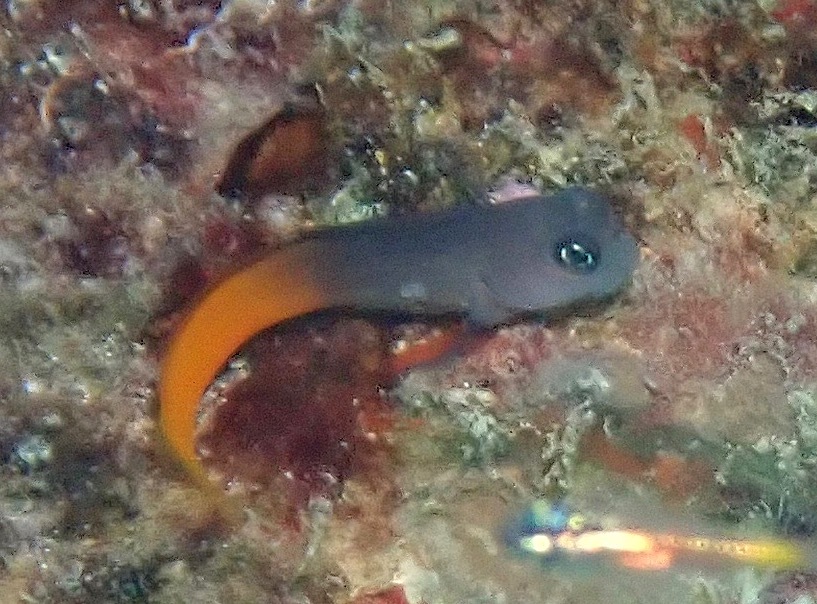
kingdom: Animalia
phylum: Chordata
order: Perciformes
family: Blenniidae
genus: Ecsenius
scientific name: Ecsenius bicolor
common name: Bicolor blenny
